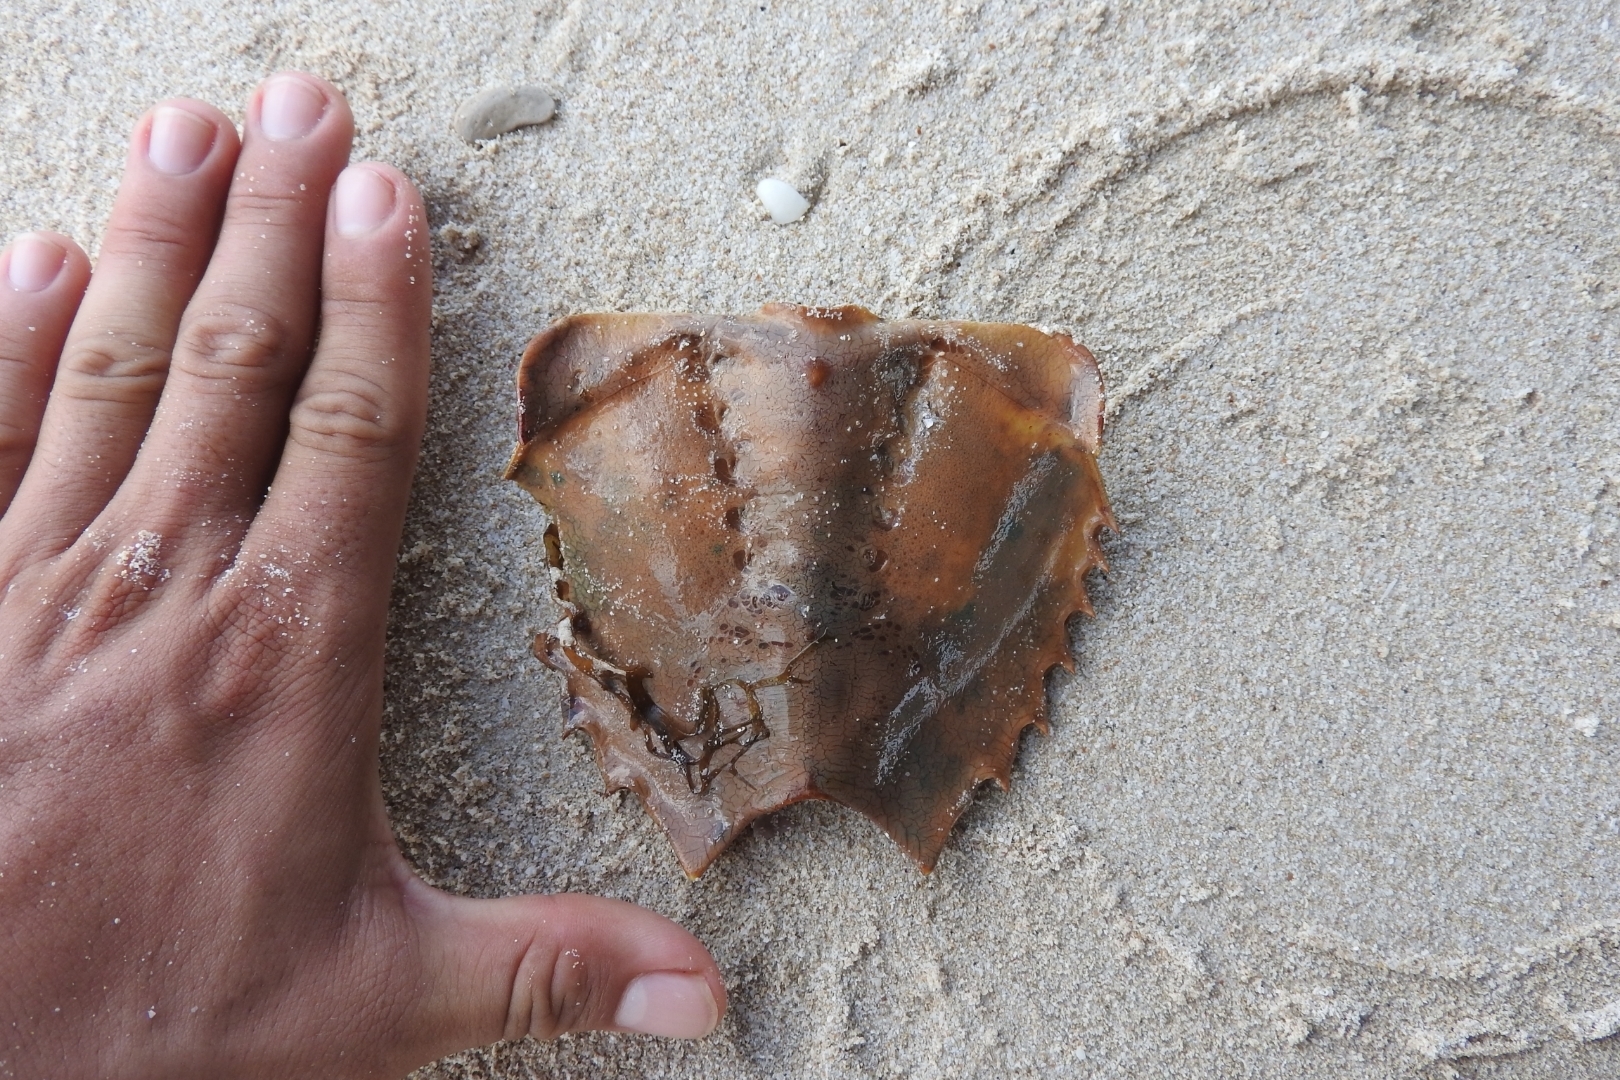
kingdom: Animalia
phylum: Arthropoda
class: Merostomata
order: Xiphosurida
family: Limulidae
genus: Limulus
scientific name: Limulus polyphemus
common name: Horseshoe crab
